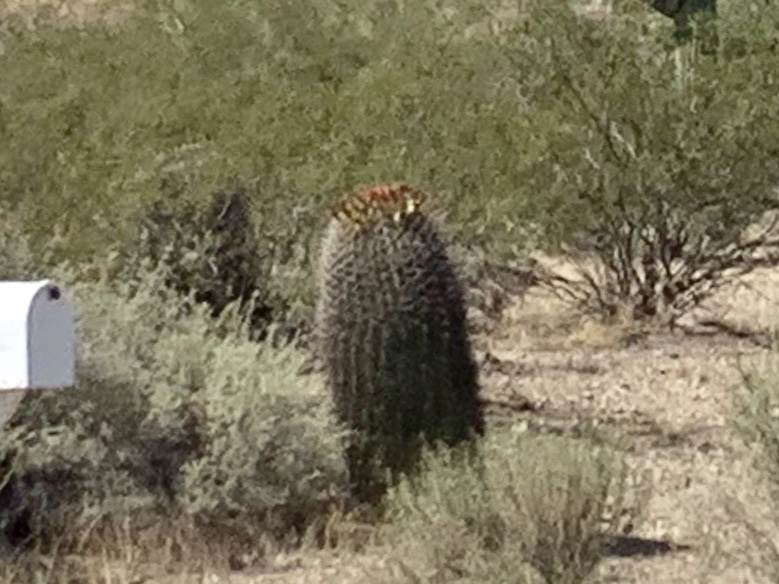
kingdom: Plantae
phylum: Tracheophyta
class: Magnoliopsida
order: Caryophyllales
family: Cactaceae
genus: Ferocactus
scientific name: Ferocactus wislizeni
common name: Candy barrel cactus
